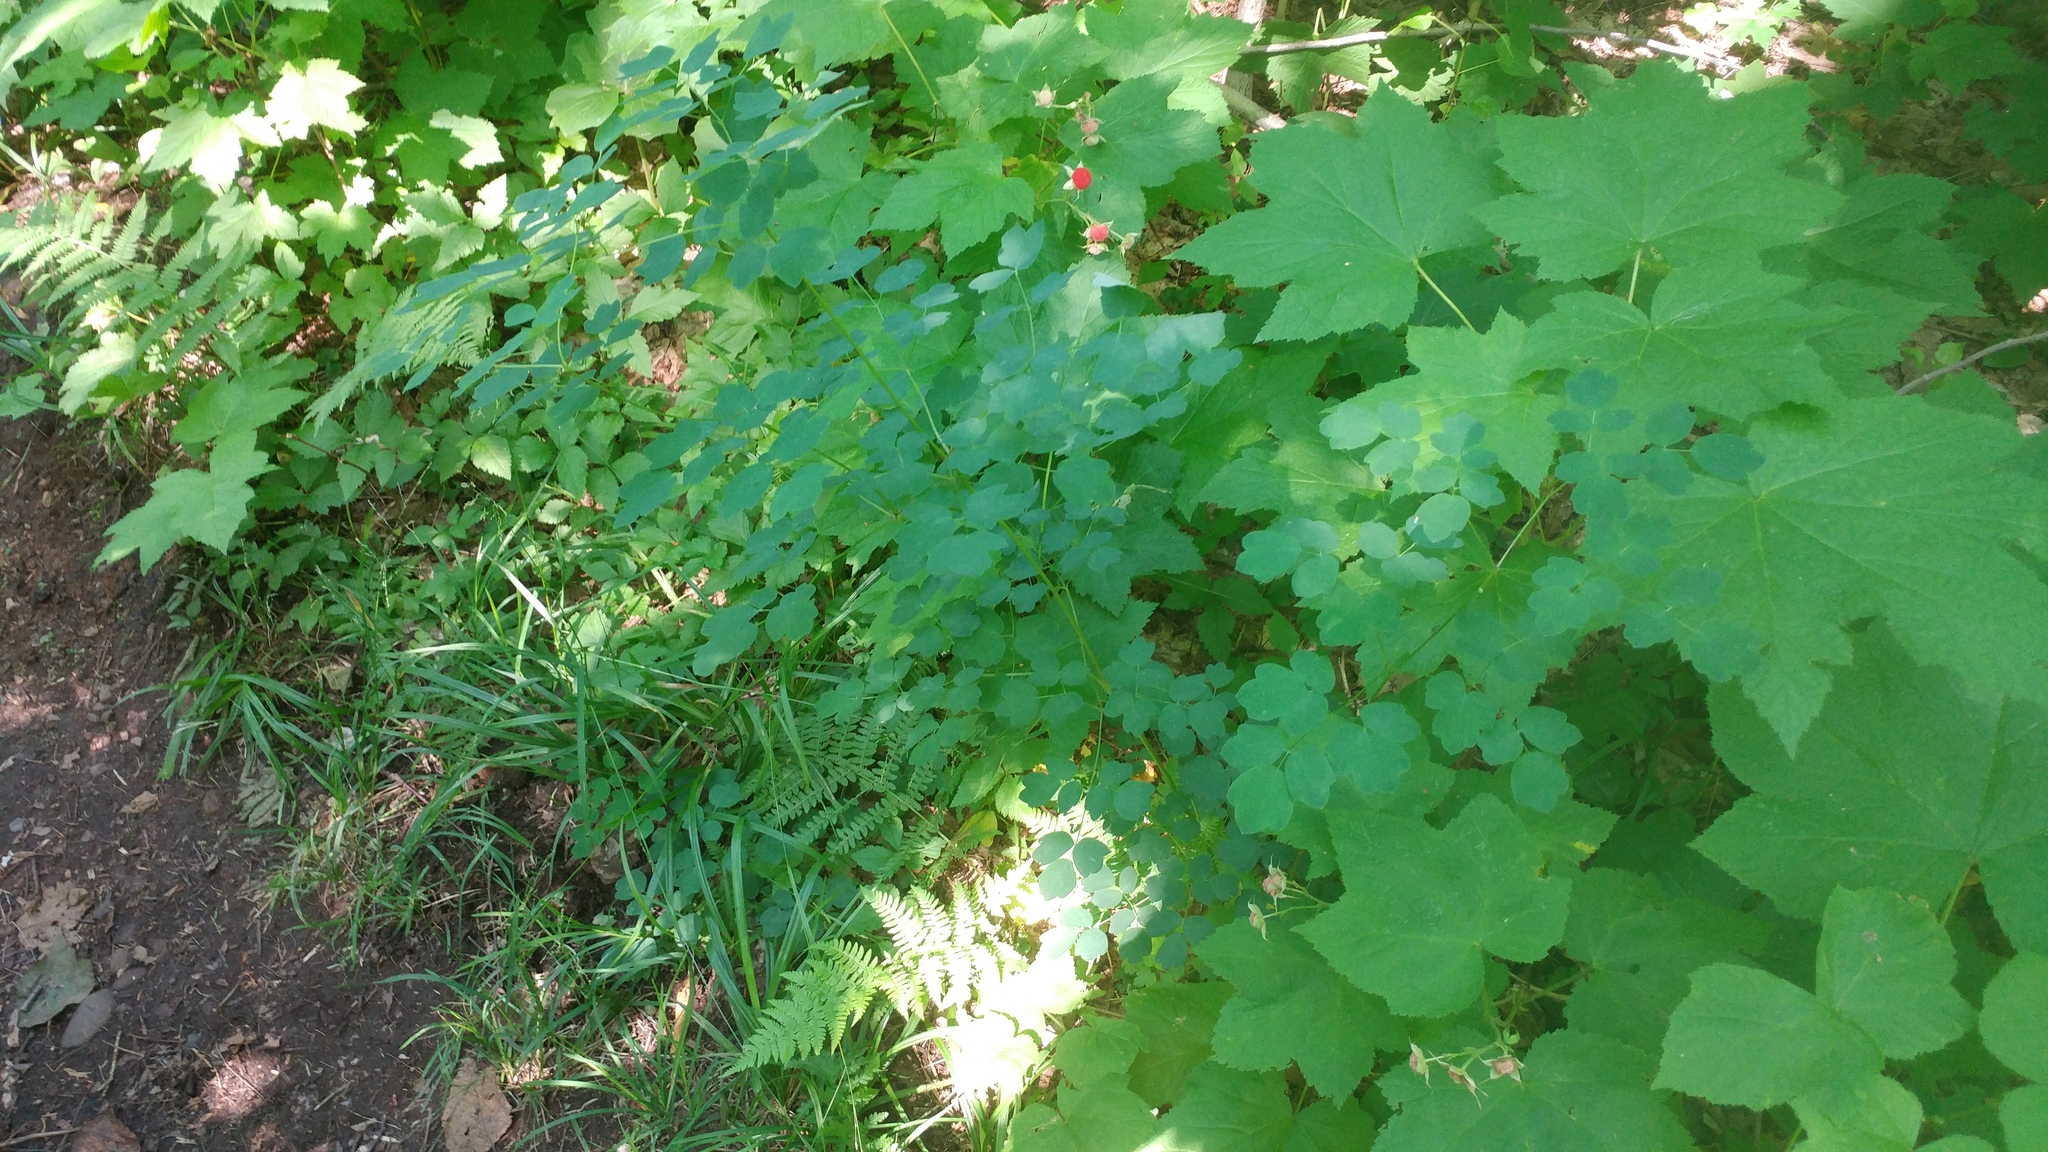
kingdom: Plantae
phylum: Tracheophyta
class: Magnoliopsida
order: Ranunculales
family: Ranunculaceae
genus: Thalictrum
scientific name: Thalictrum dasycarpum
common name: Purple meadow-rue
